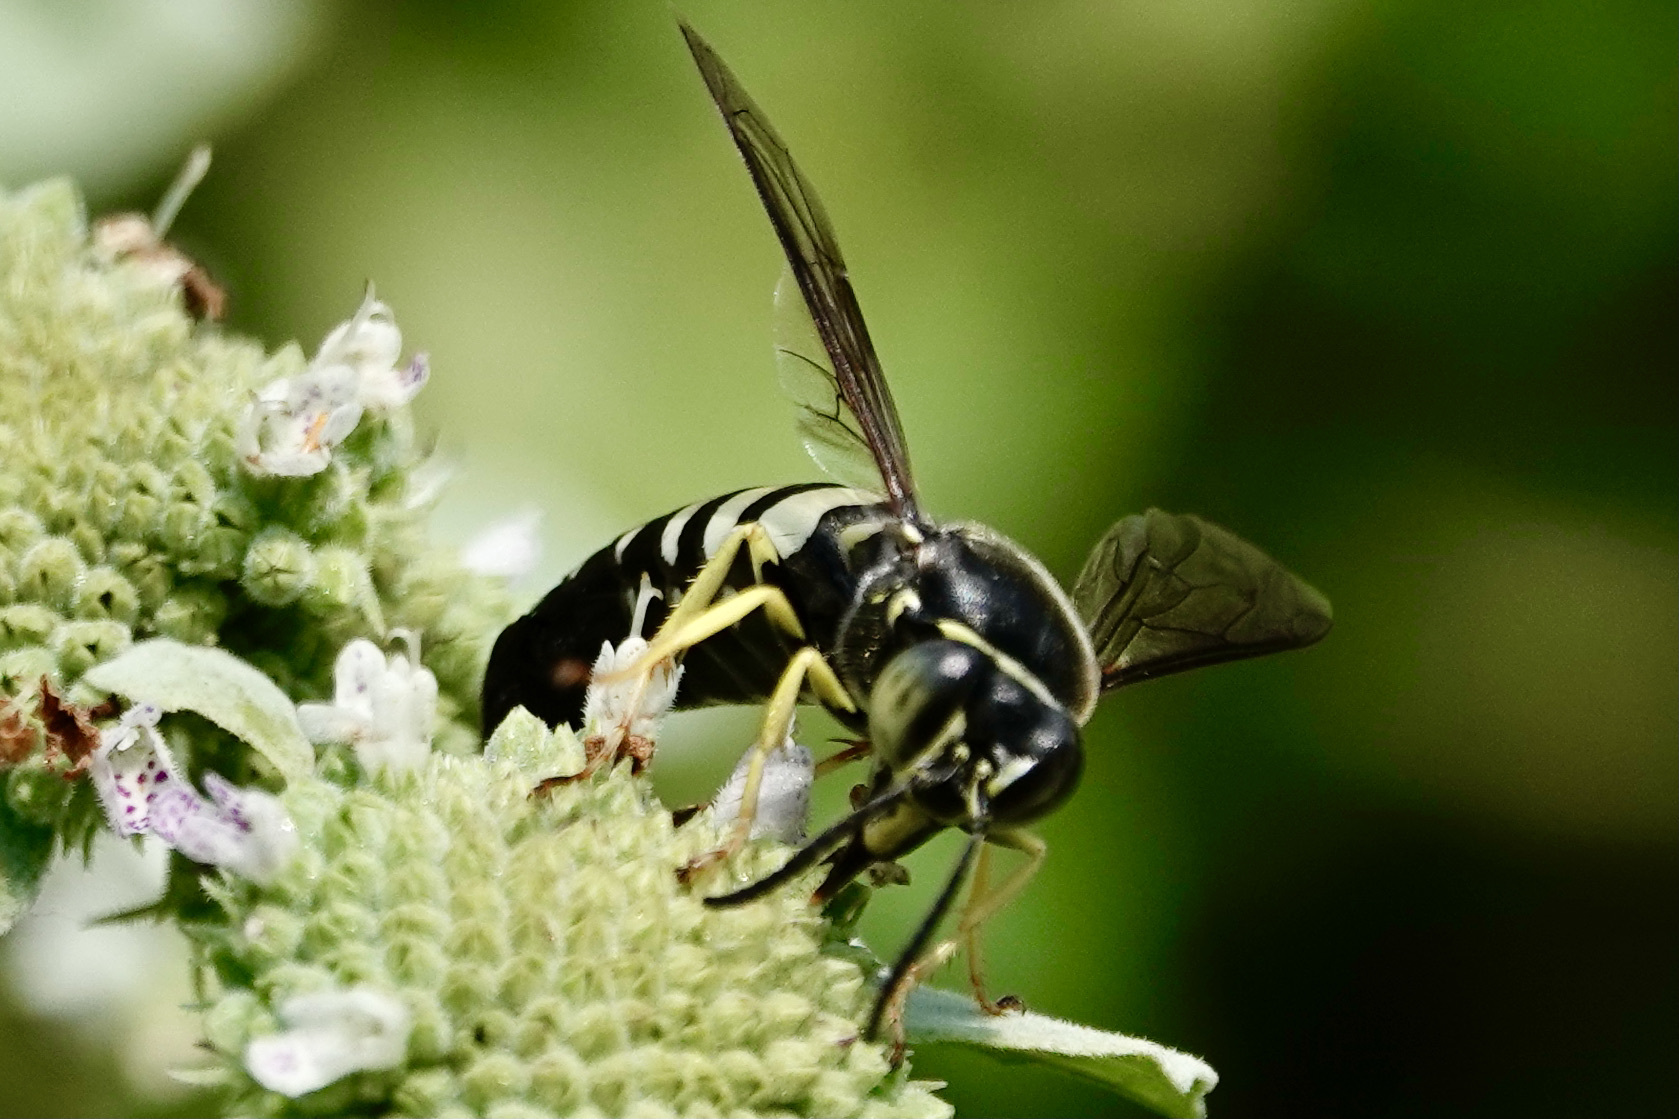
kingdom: Animalia
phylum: Arthropoda
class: Insecta
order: Hymenoptera
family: Crabronidae
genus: Bicyrtes
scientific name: Bicyrtes quadrifasciatus
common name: Four-banded stink bug hunter wasp
